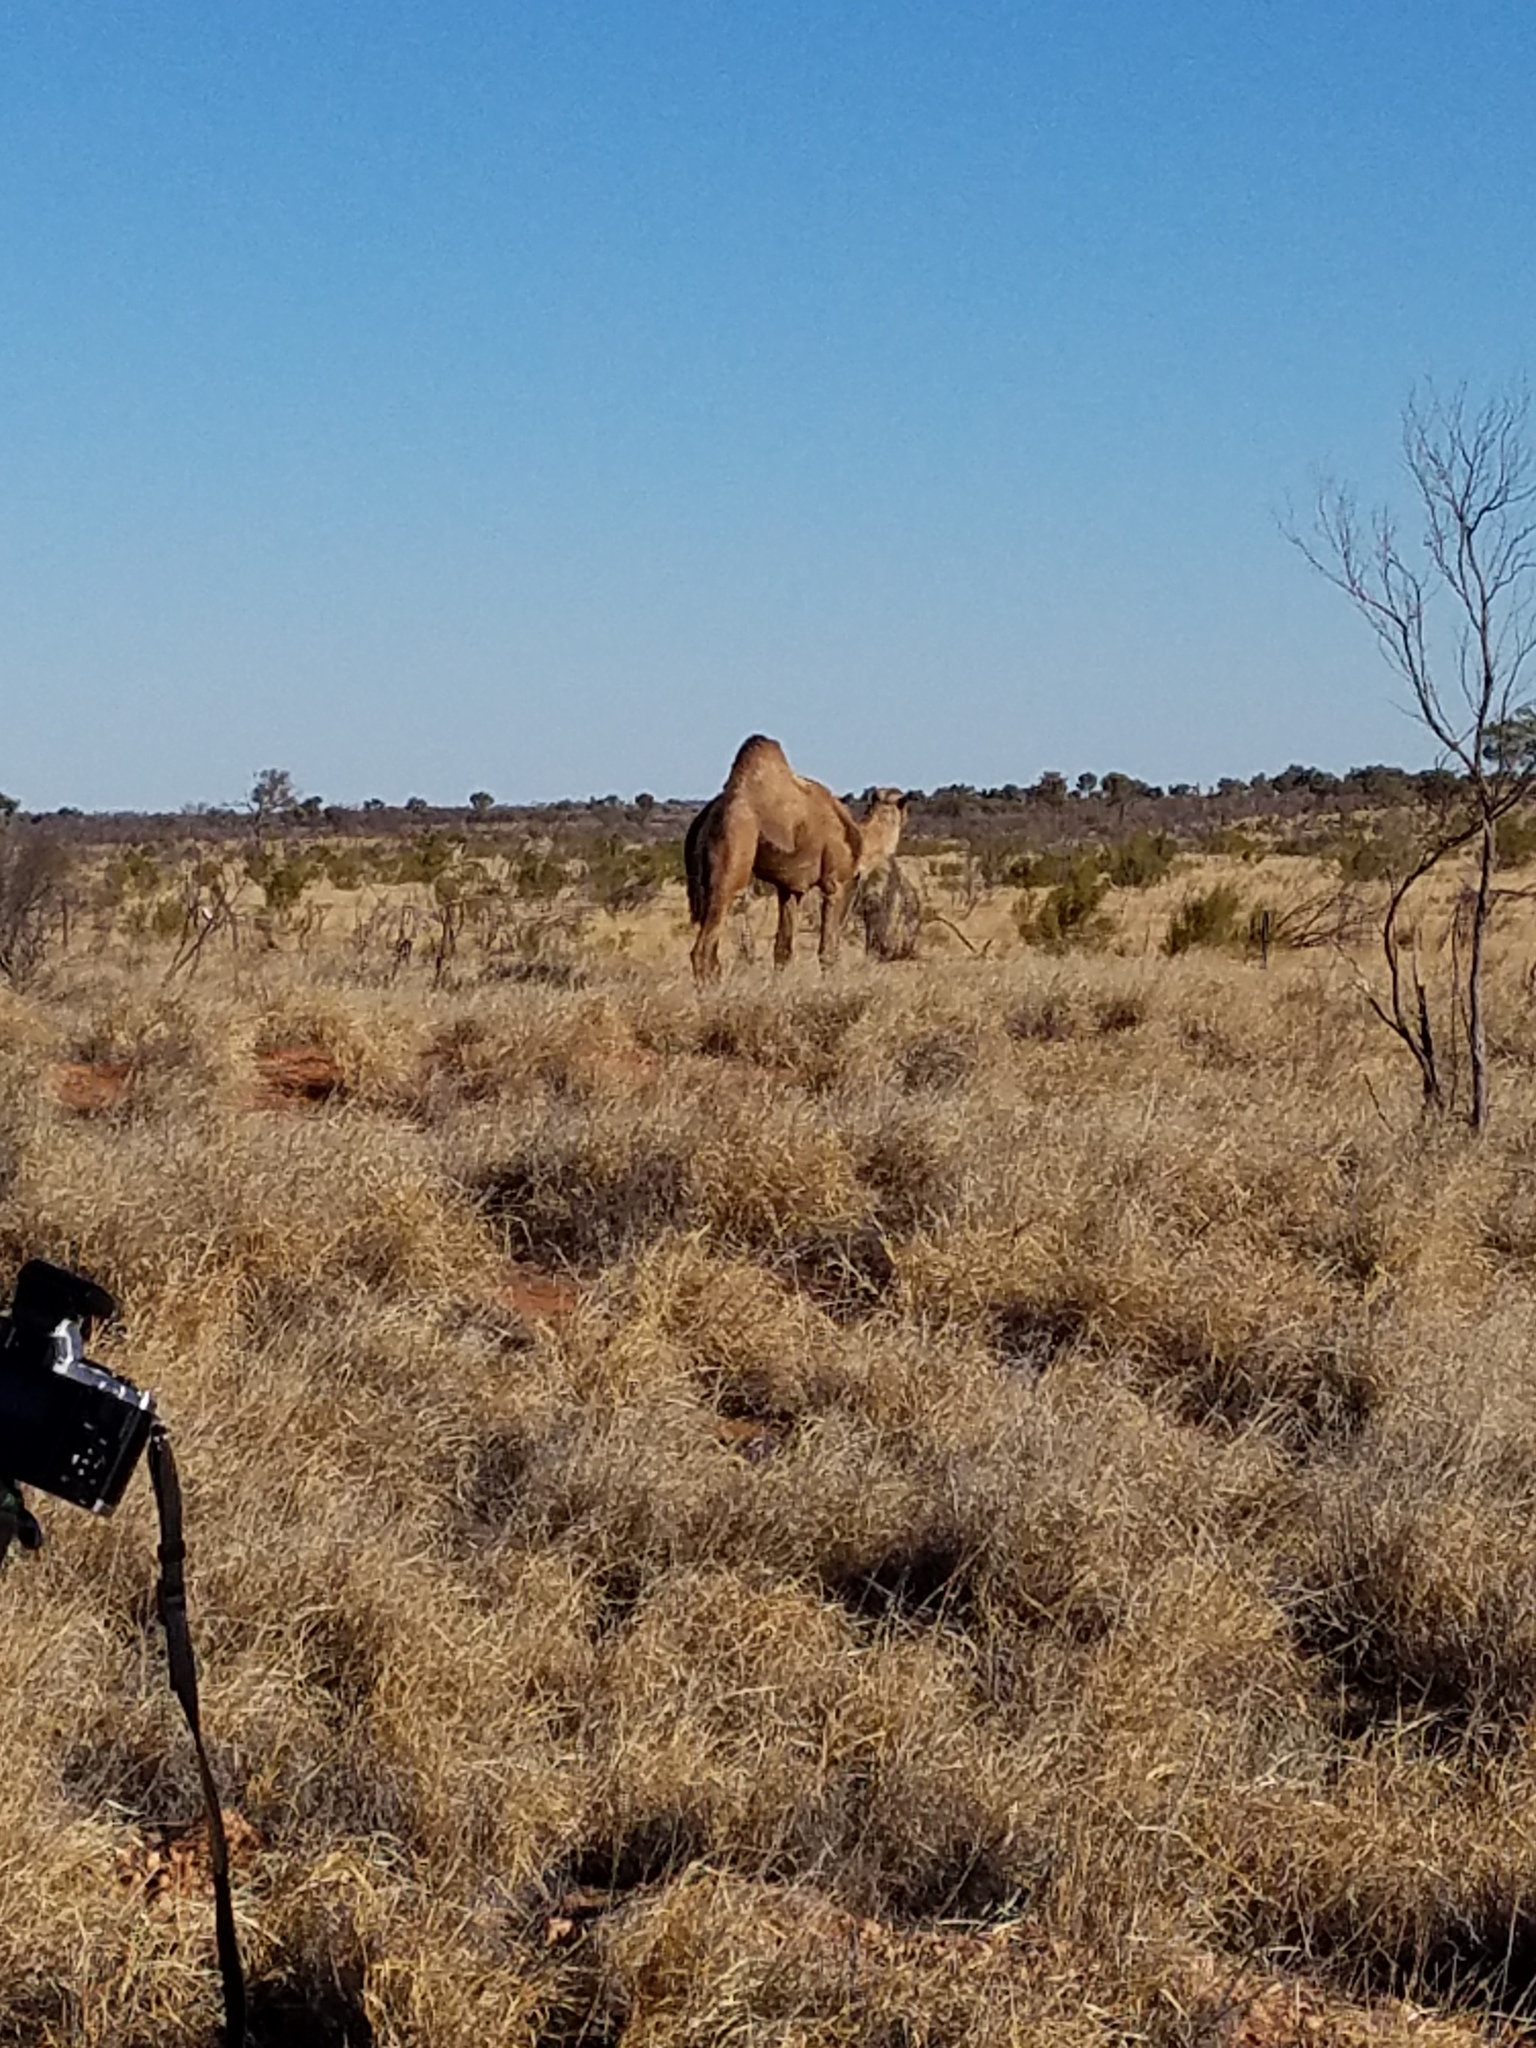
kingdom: Animalia
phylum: Chordata
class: Mammalia
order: Artiodactyla
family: Camelidae
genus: Camelus
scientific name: Camelus dromedarius
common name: One-humped camel
